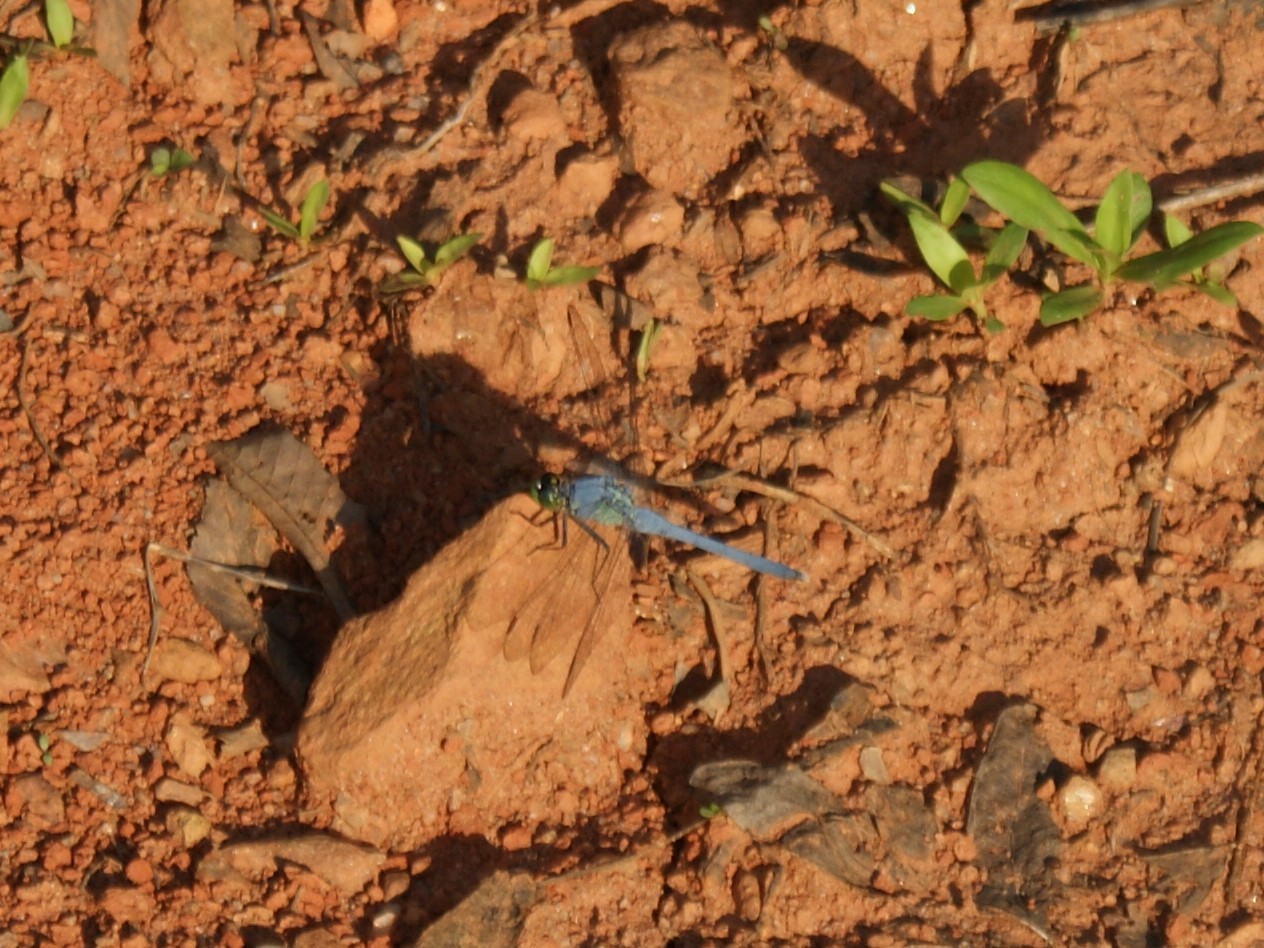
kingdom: Animalia
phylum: Arthropoda
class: Insecta
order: Odonata
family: Libellulidae
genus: Erythemis
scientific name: Erythemis simplicicollis
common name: Eastern pondhawk
